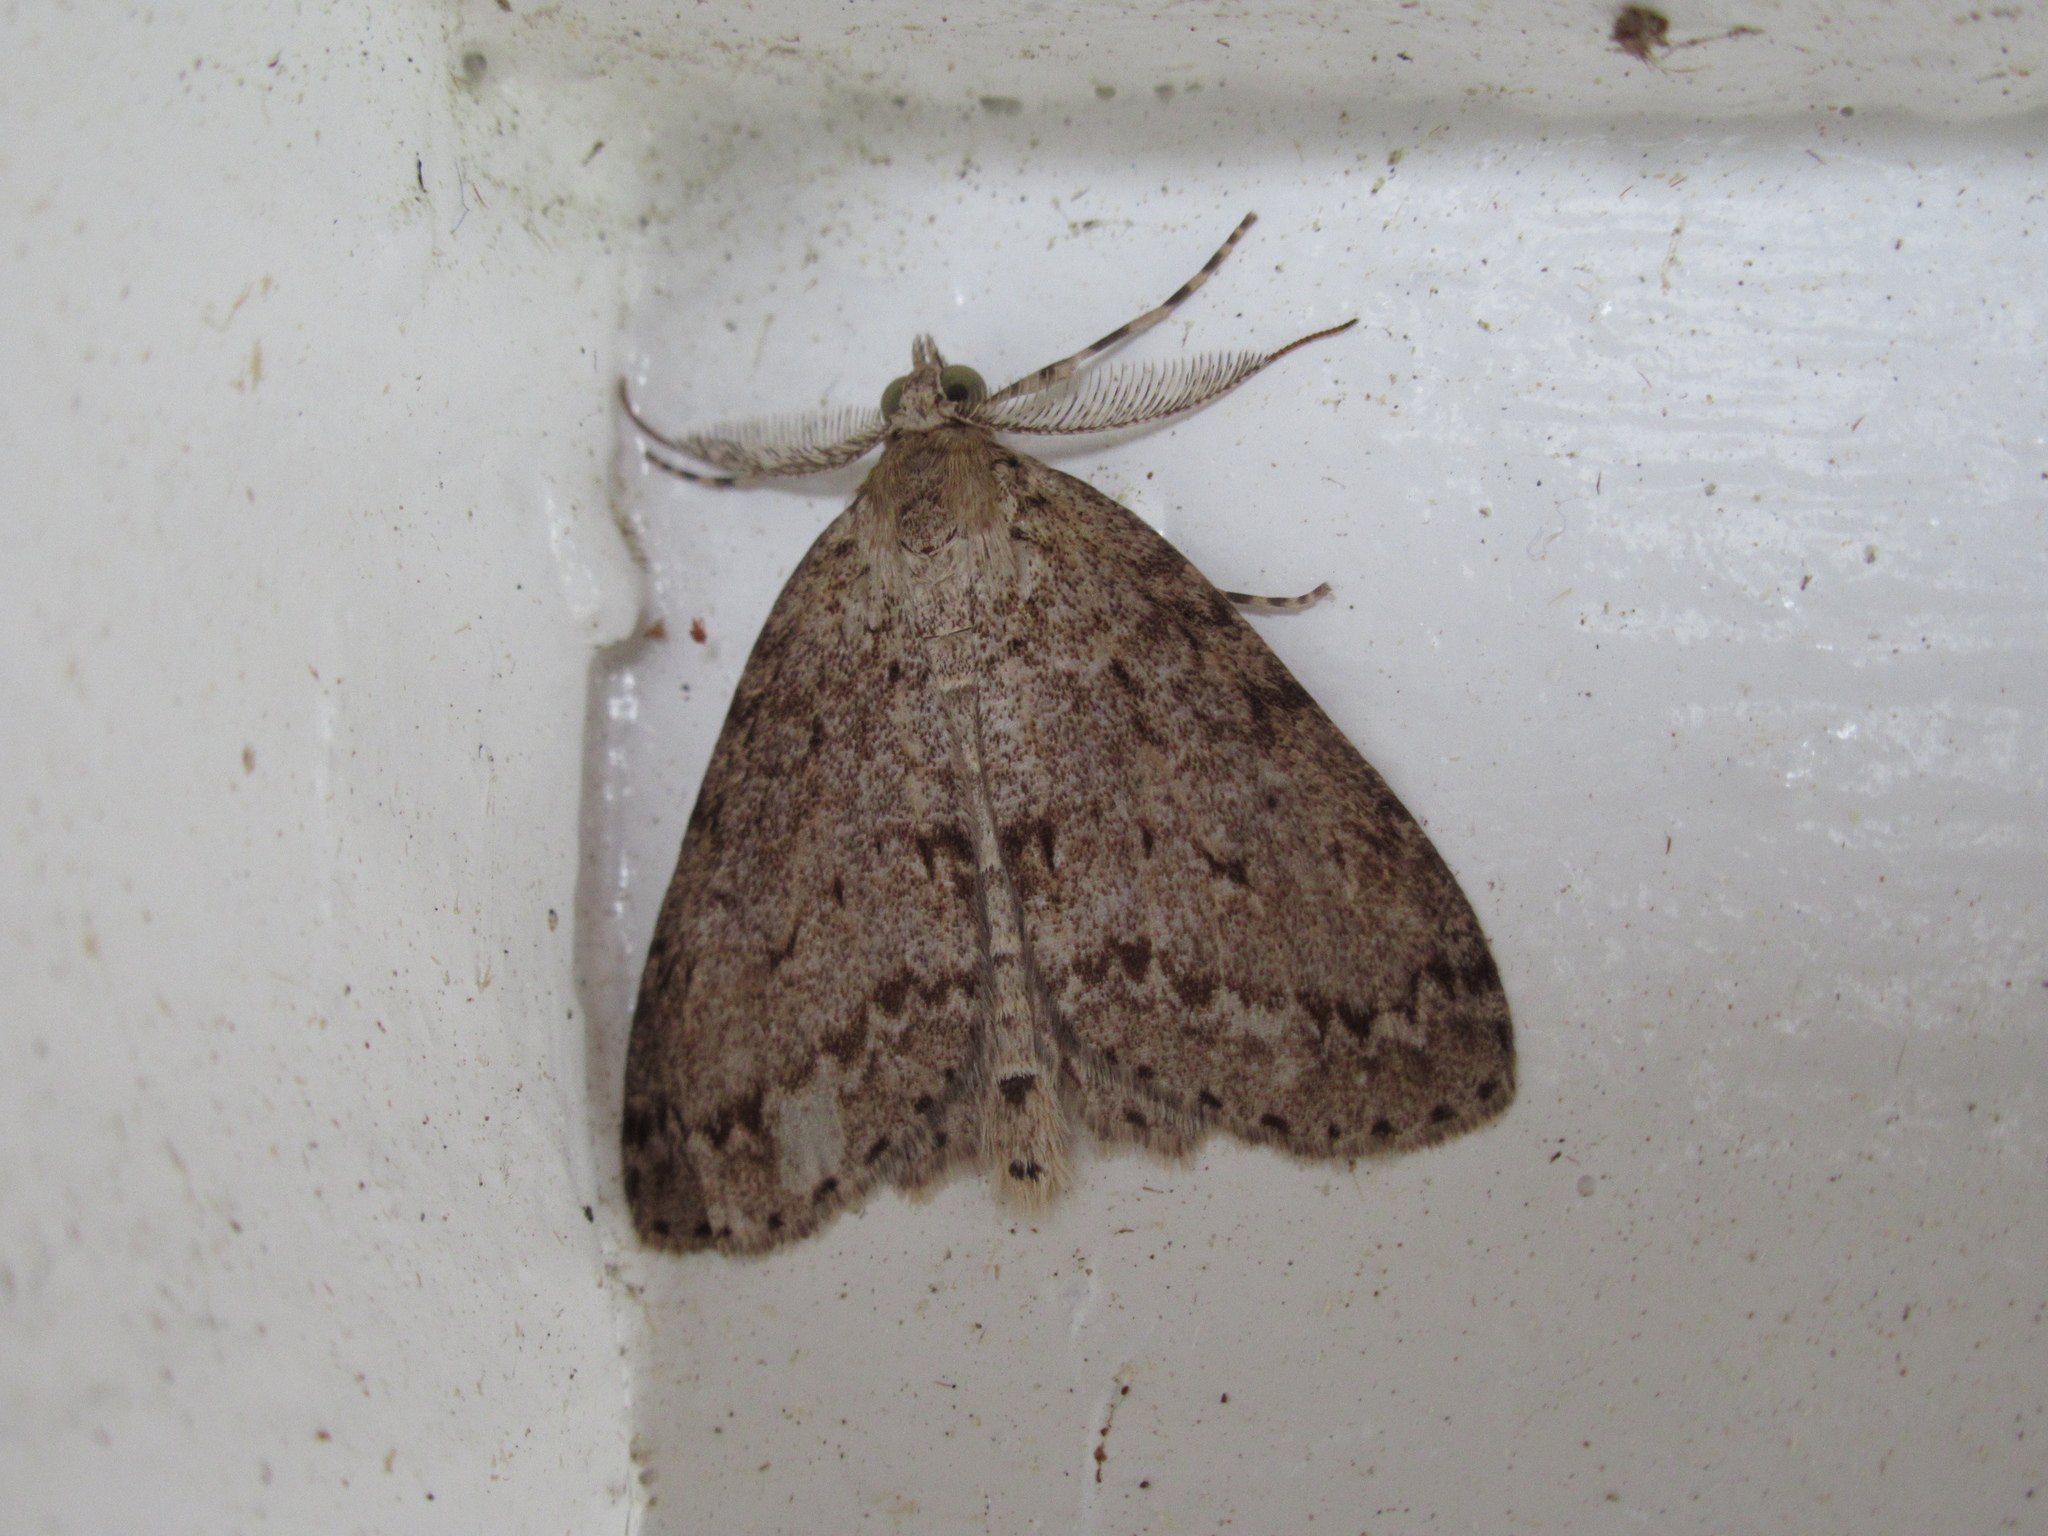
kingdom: Animalia
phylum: Arthropoda
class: Insecta
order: Lepidoptera
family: Geometridae
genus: Pseudocoremia
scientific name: Pseudocoremia fenerata
